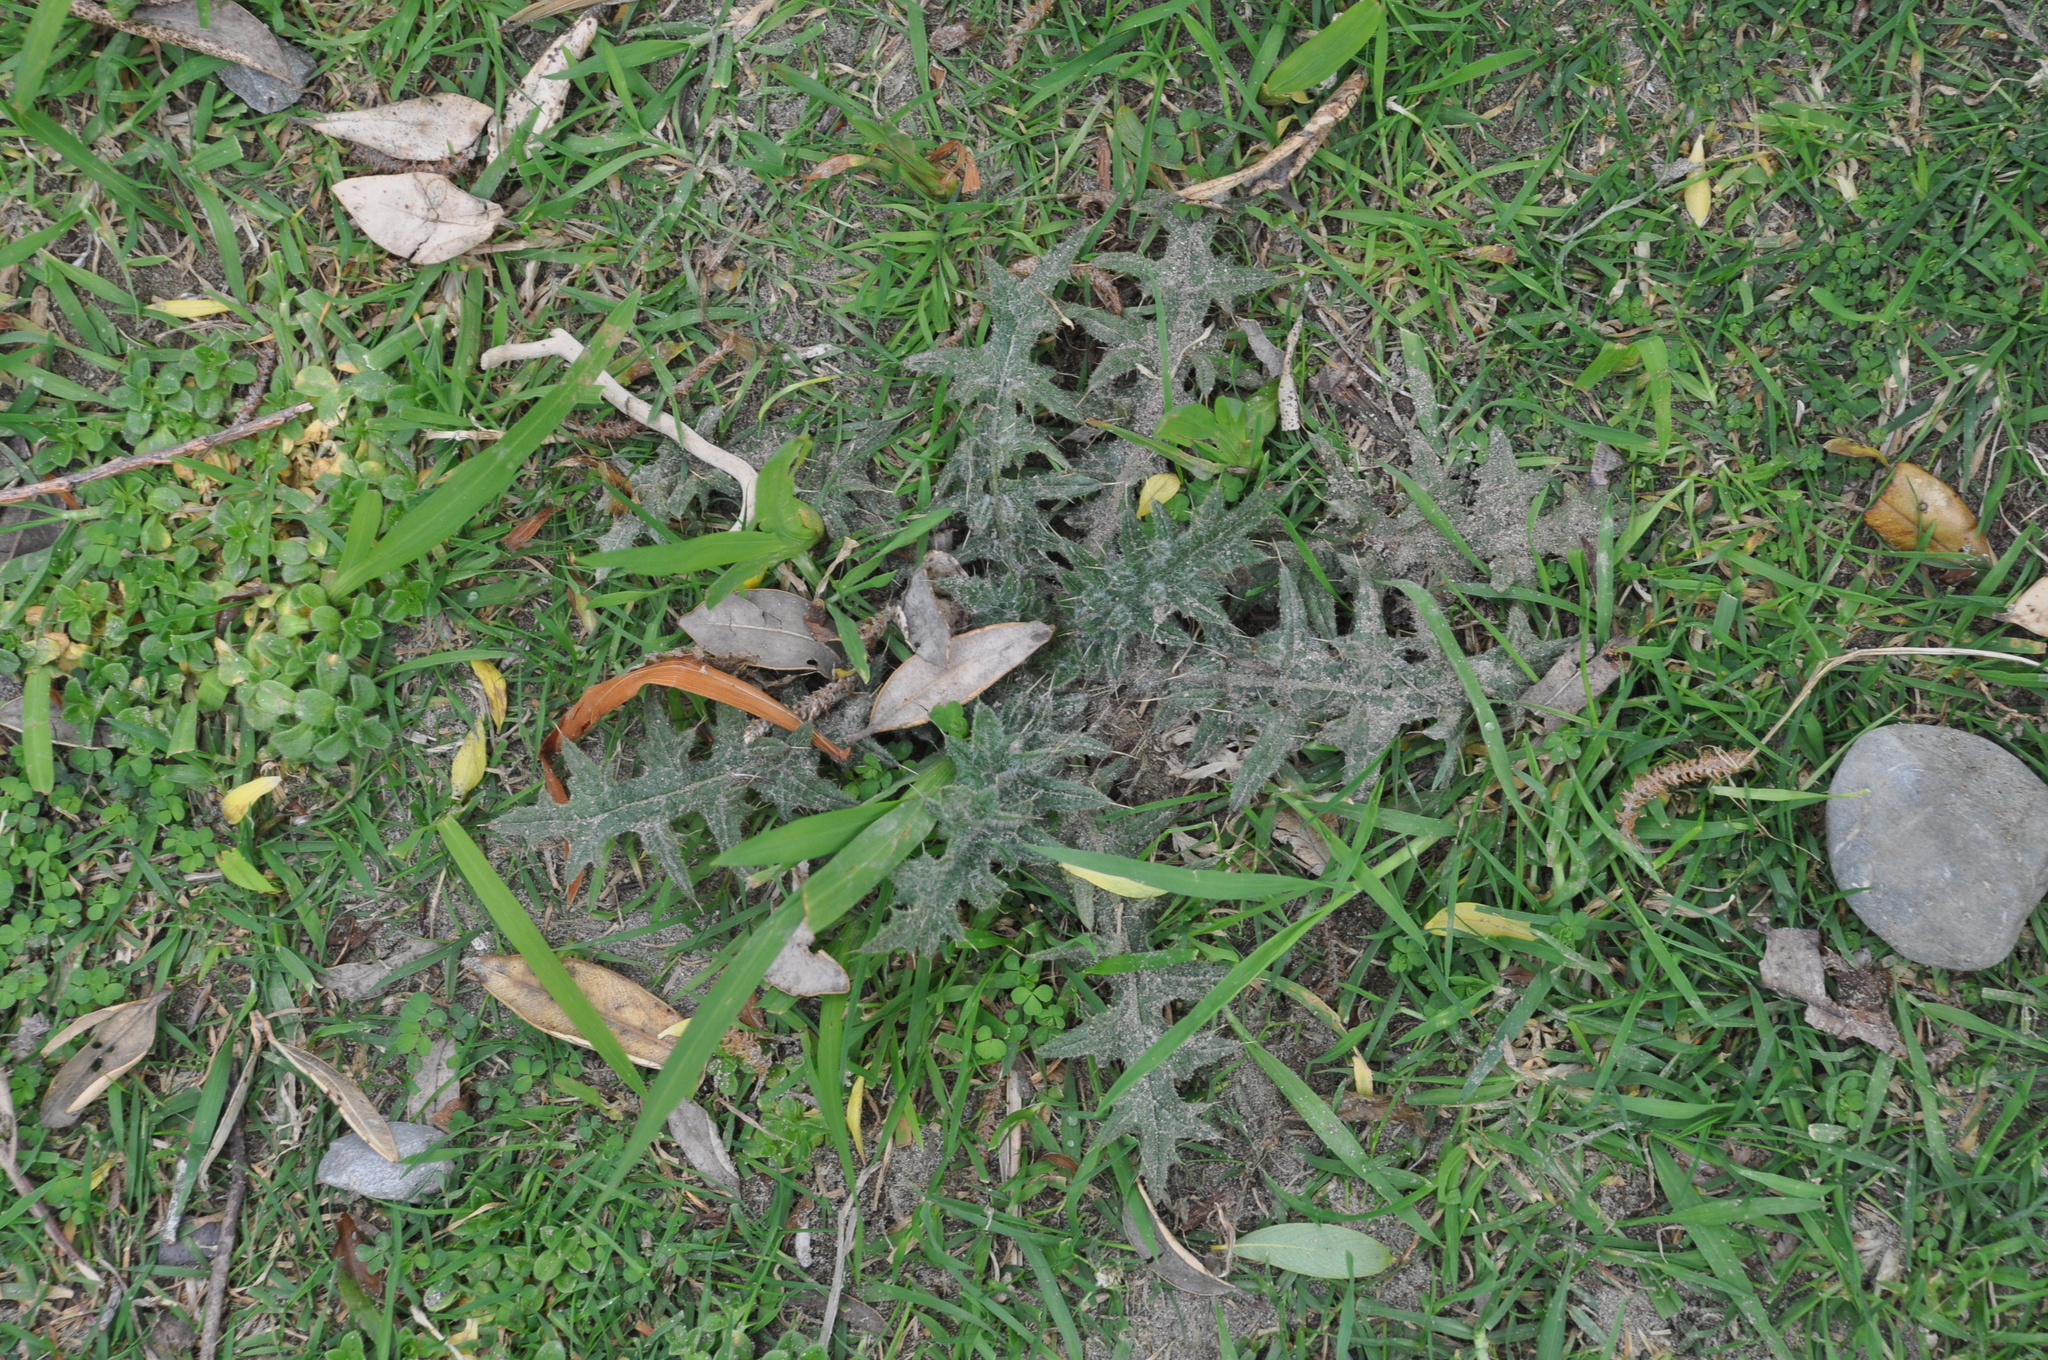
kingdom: Plantae
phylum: Tracheophyta
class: Magnoliopsida
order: Asterales
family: Asteraceae
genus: Cirsium
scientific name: Cirsium vulgare
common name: Bull thistle
